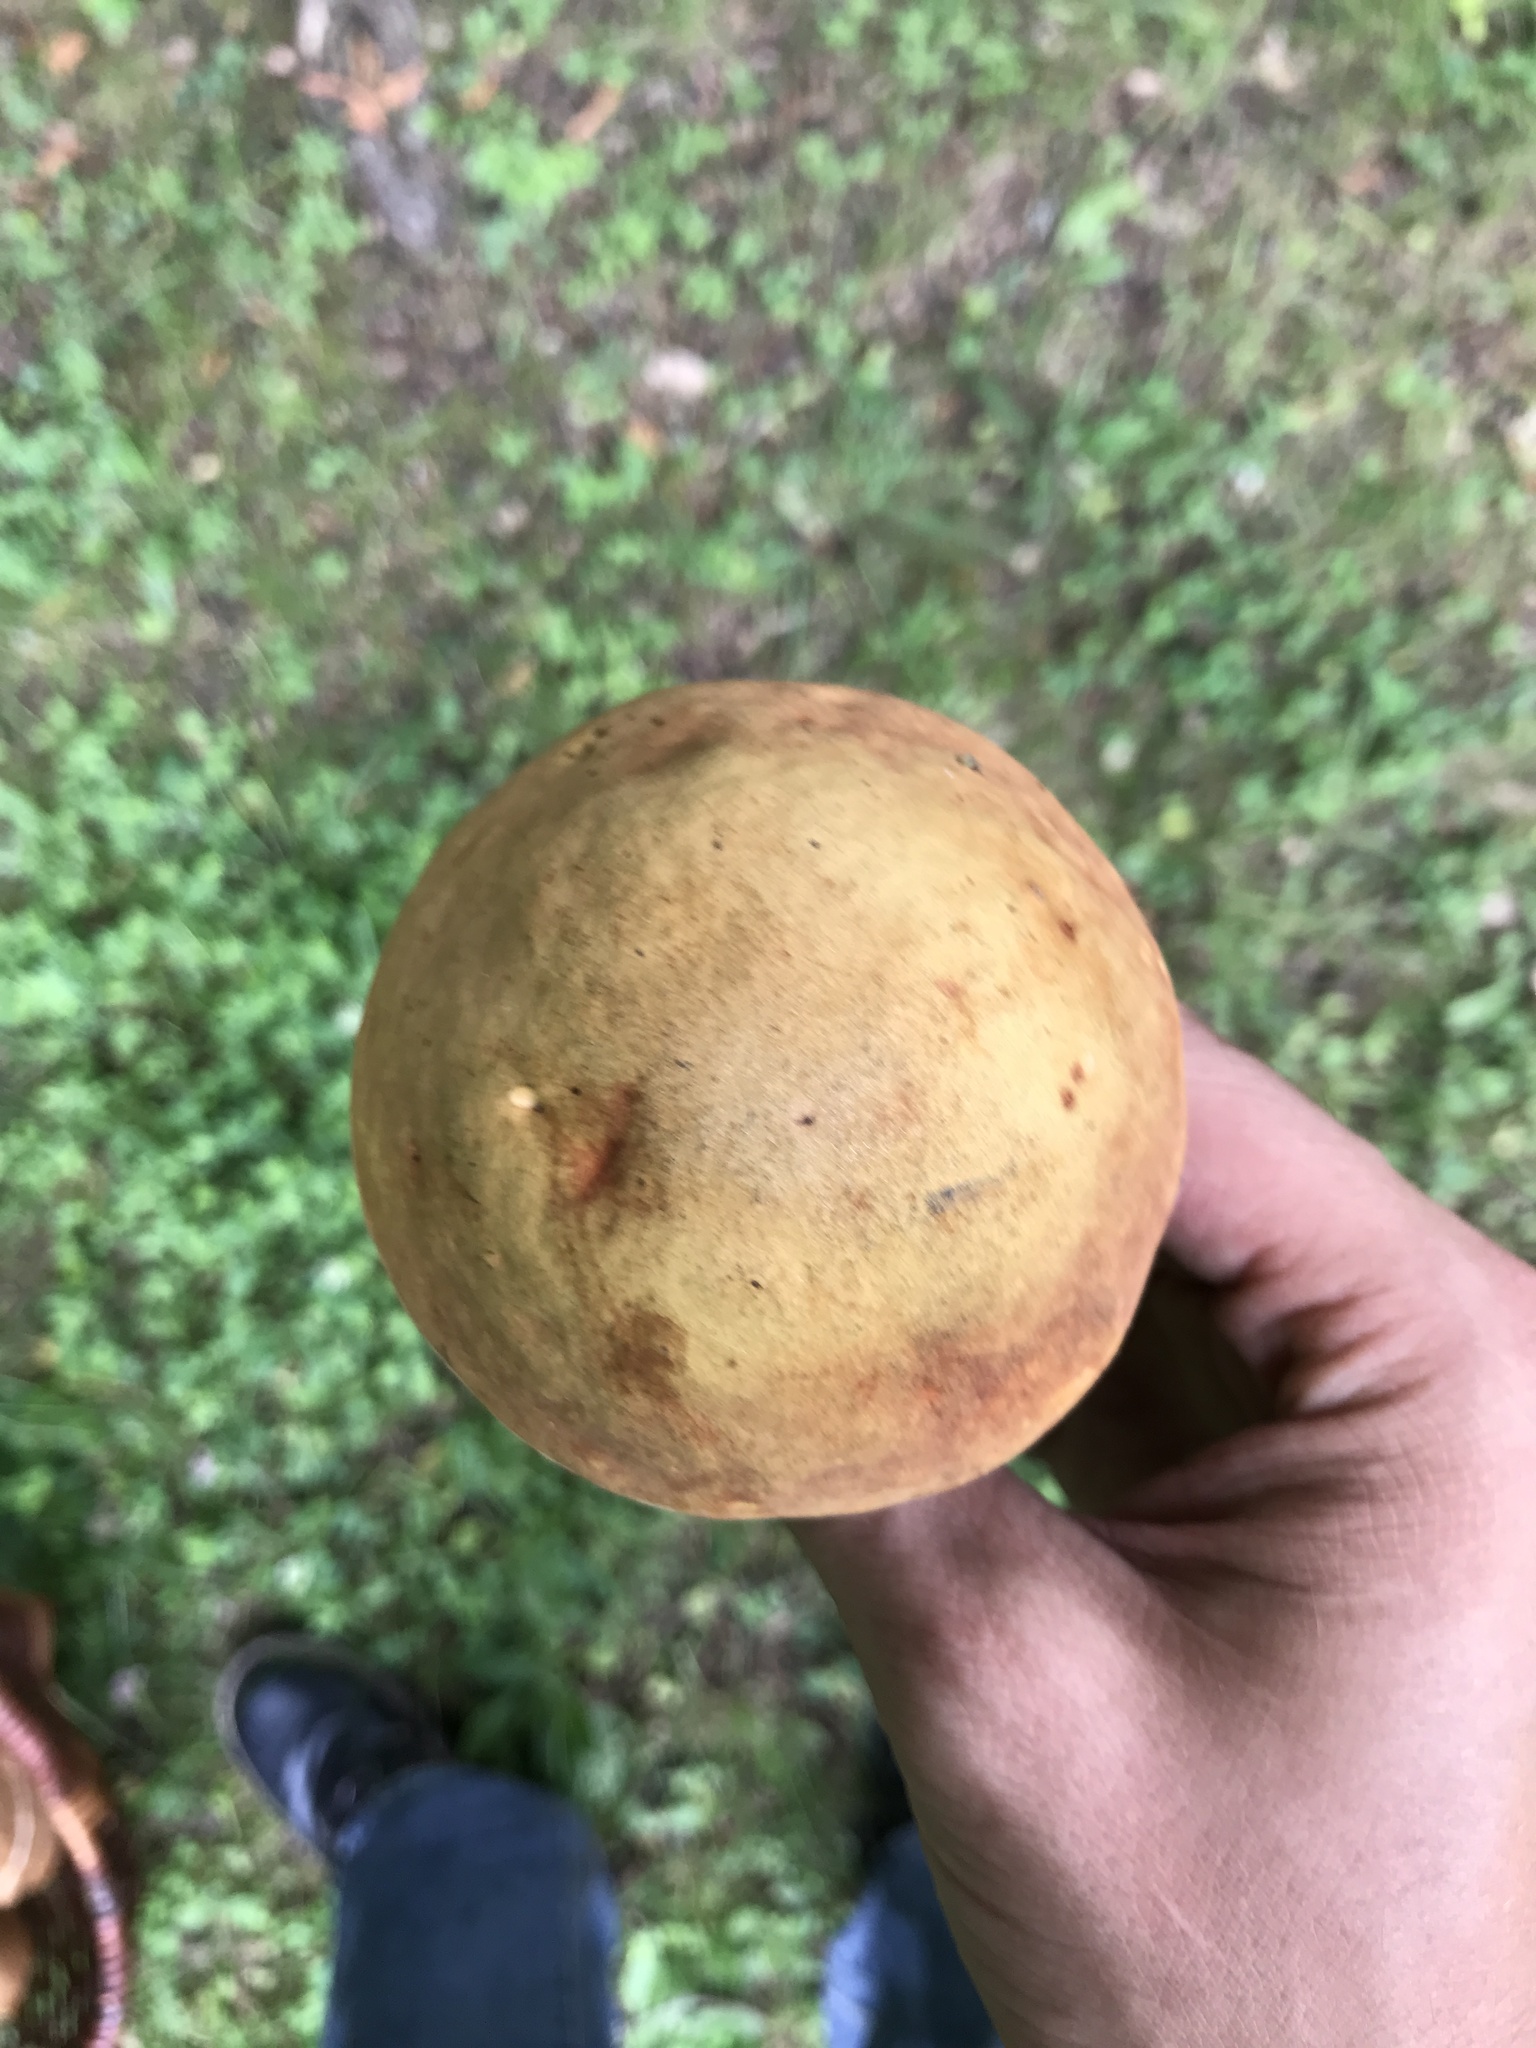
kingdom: Fungi
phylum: Basidiomycota
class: Agaricomycetes
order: Boletales
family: Boletaceae
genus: Suillellus
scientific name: Suillellus luridus
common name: Lurid bolete
